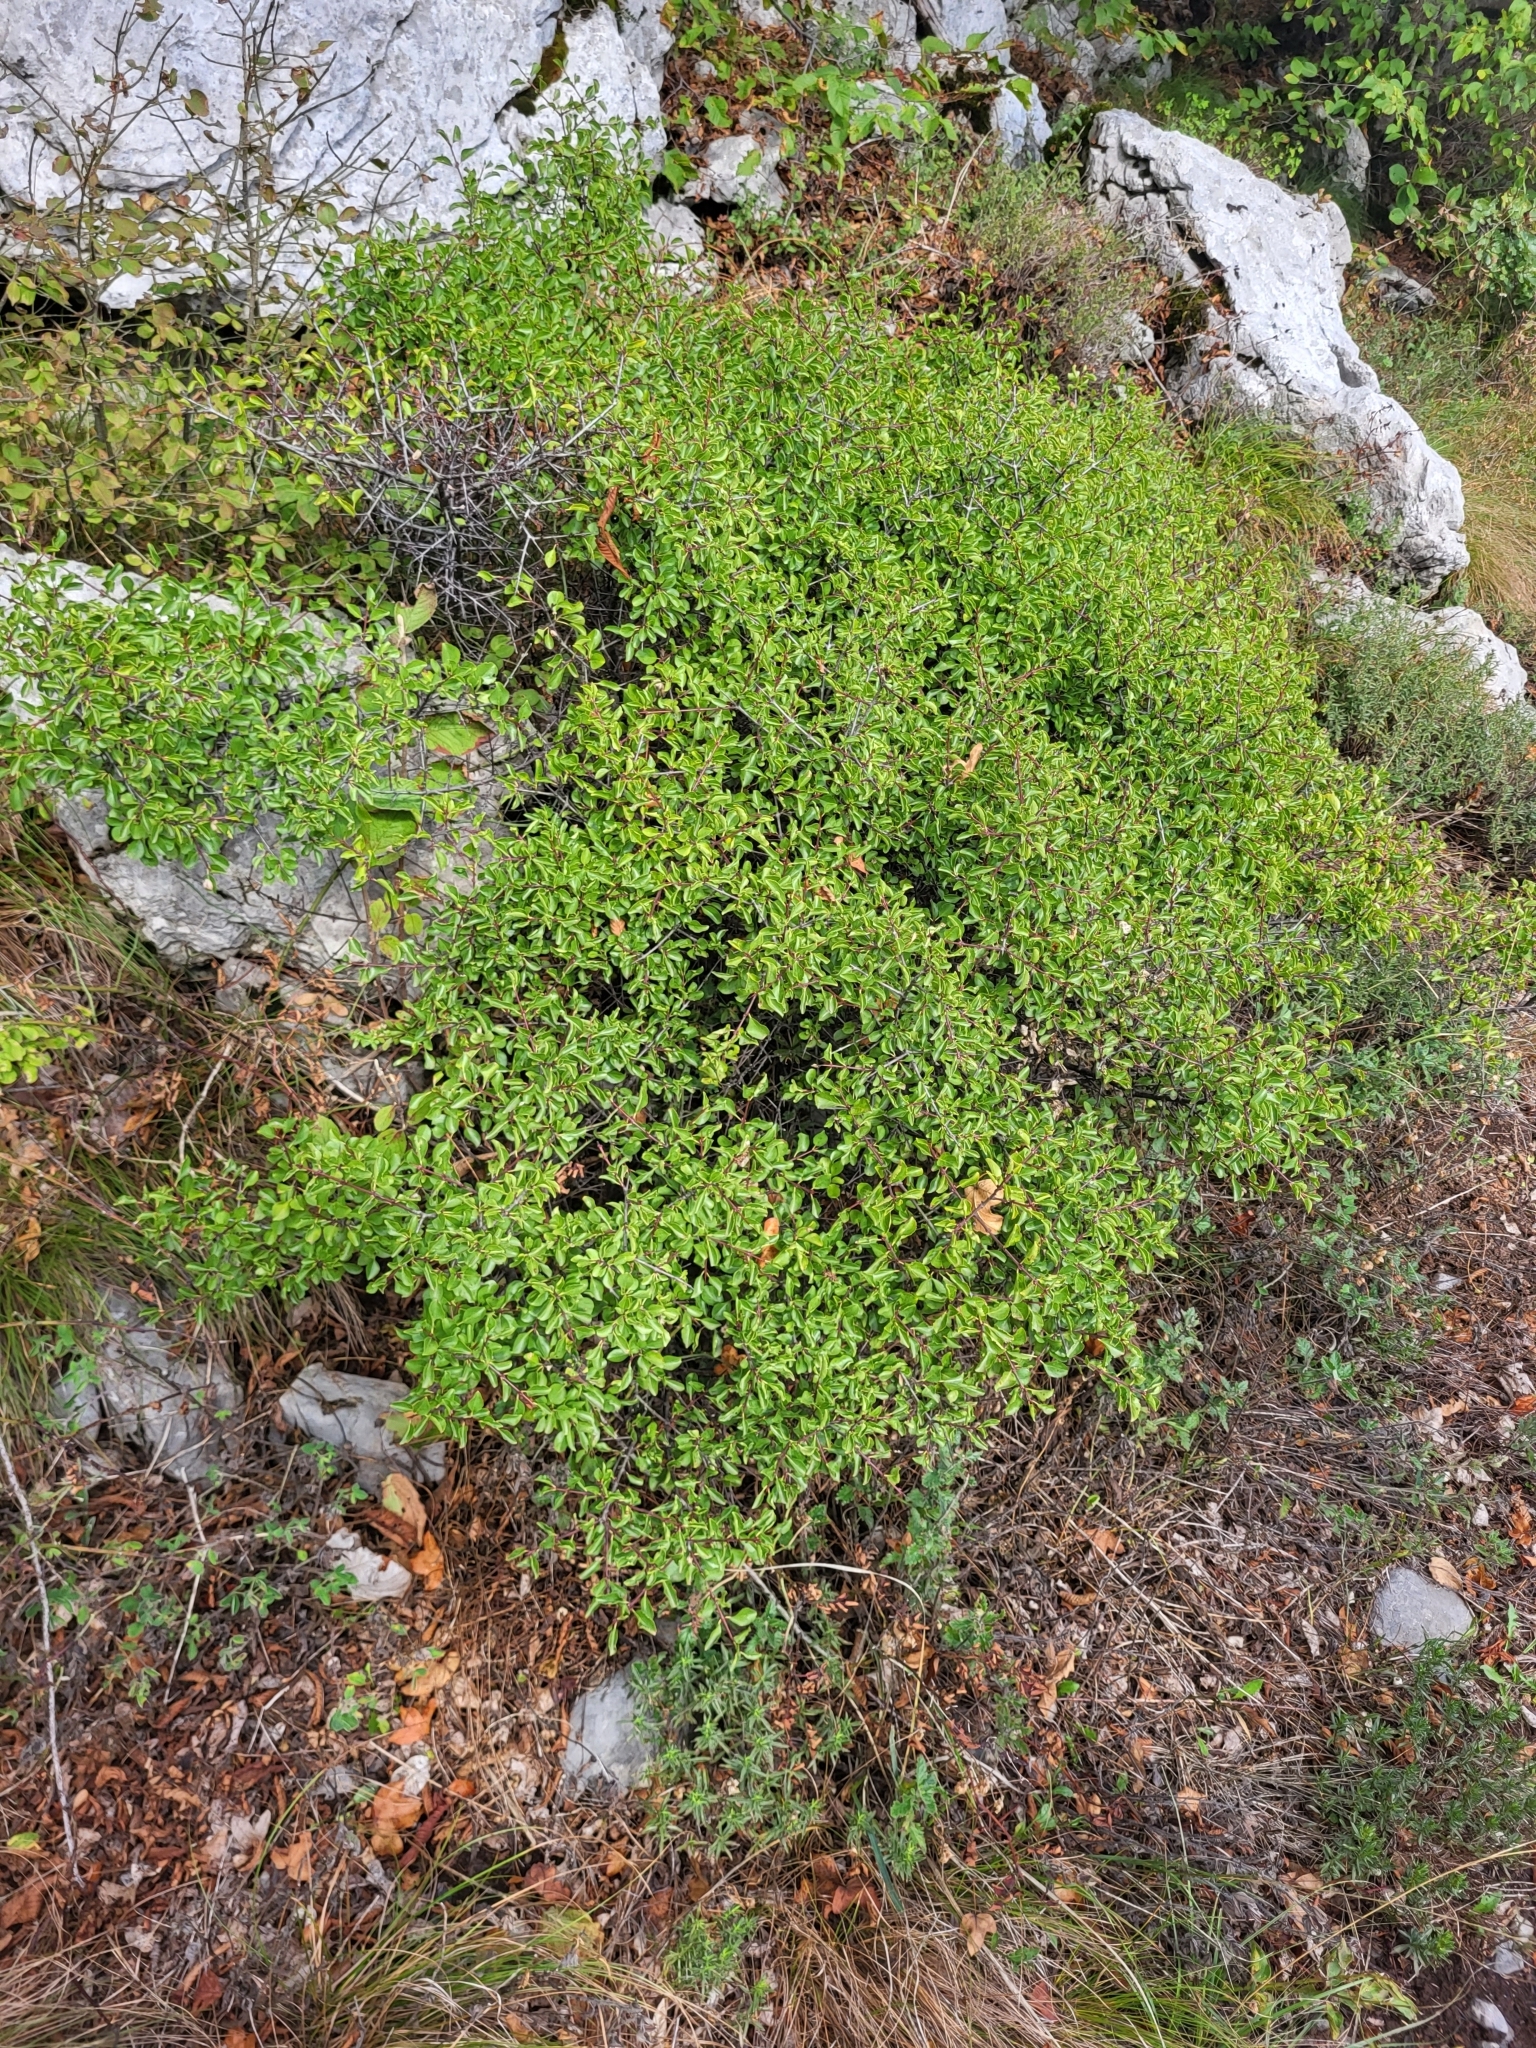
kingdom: Plantae
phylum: Tracheophyta
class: Magnoliopsida
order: Rosales
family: Rhamnaceae
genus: Rhamnus
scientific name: Rhamnus intermedia
